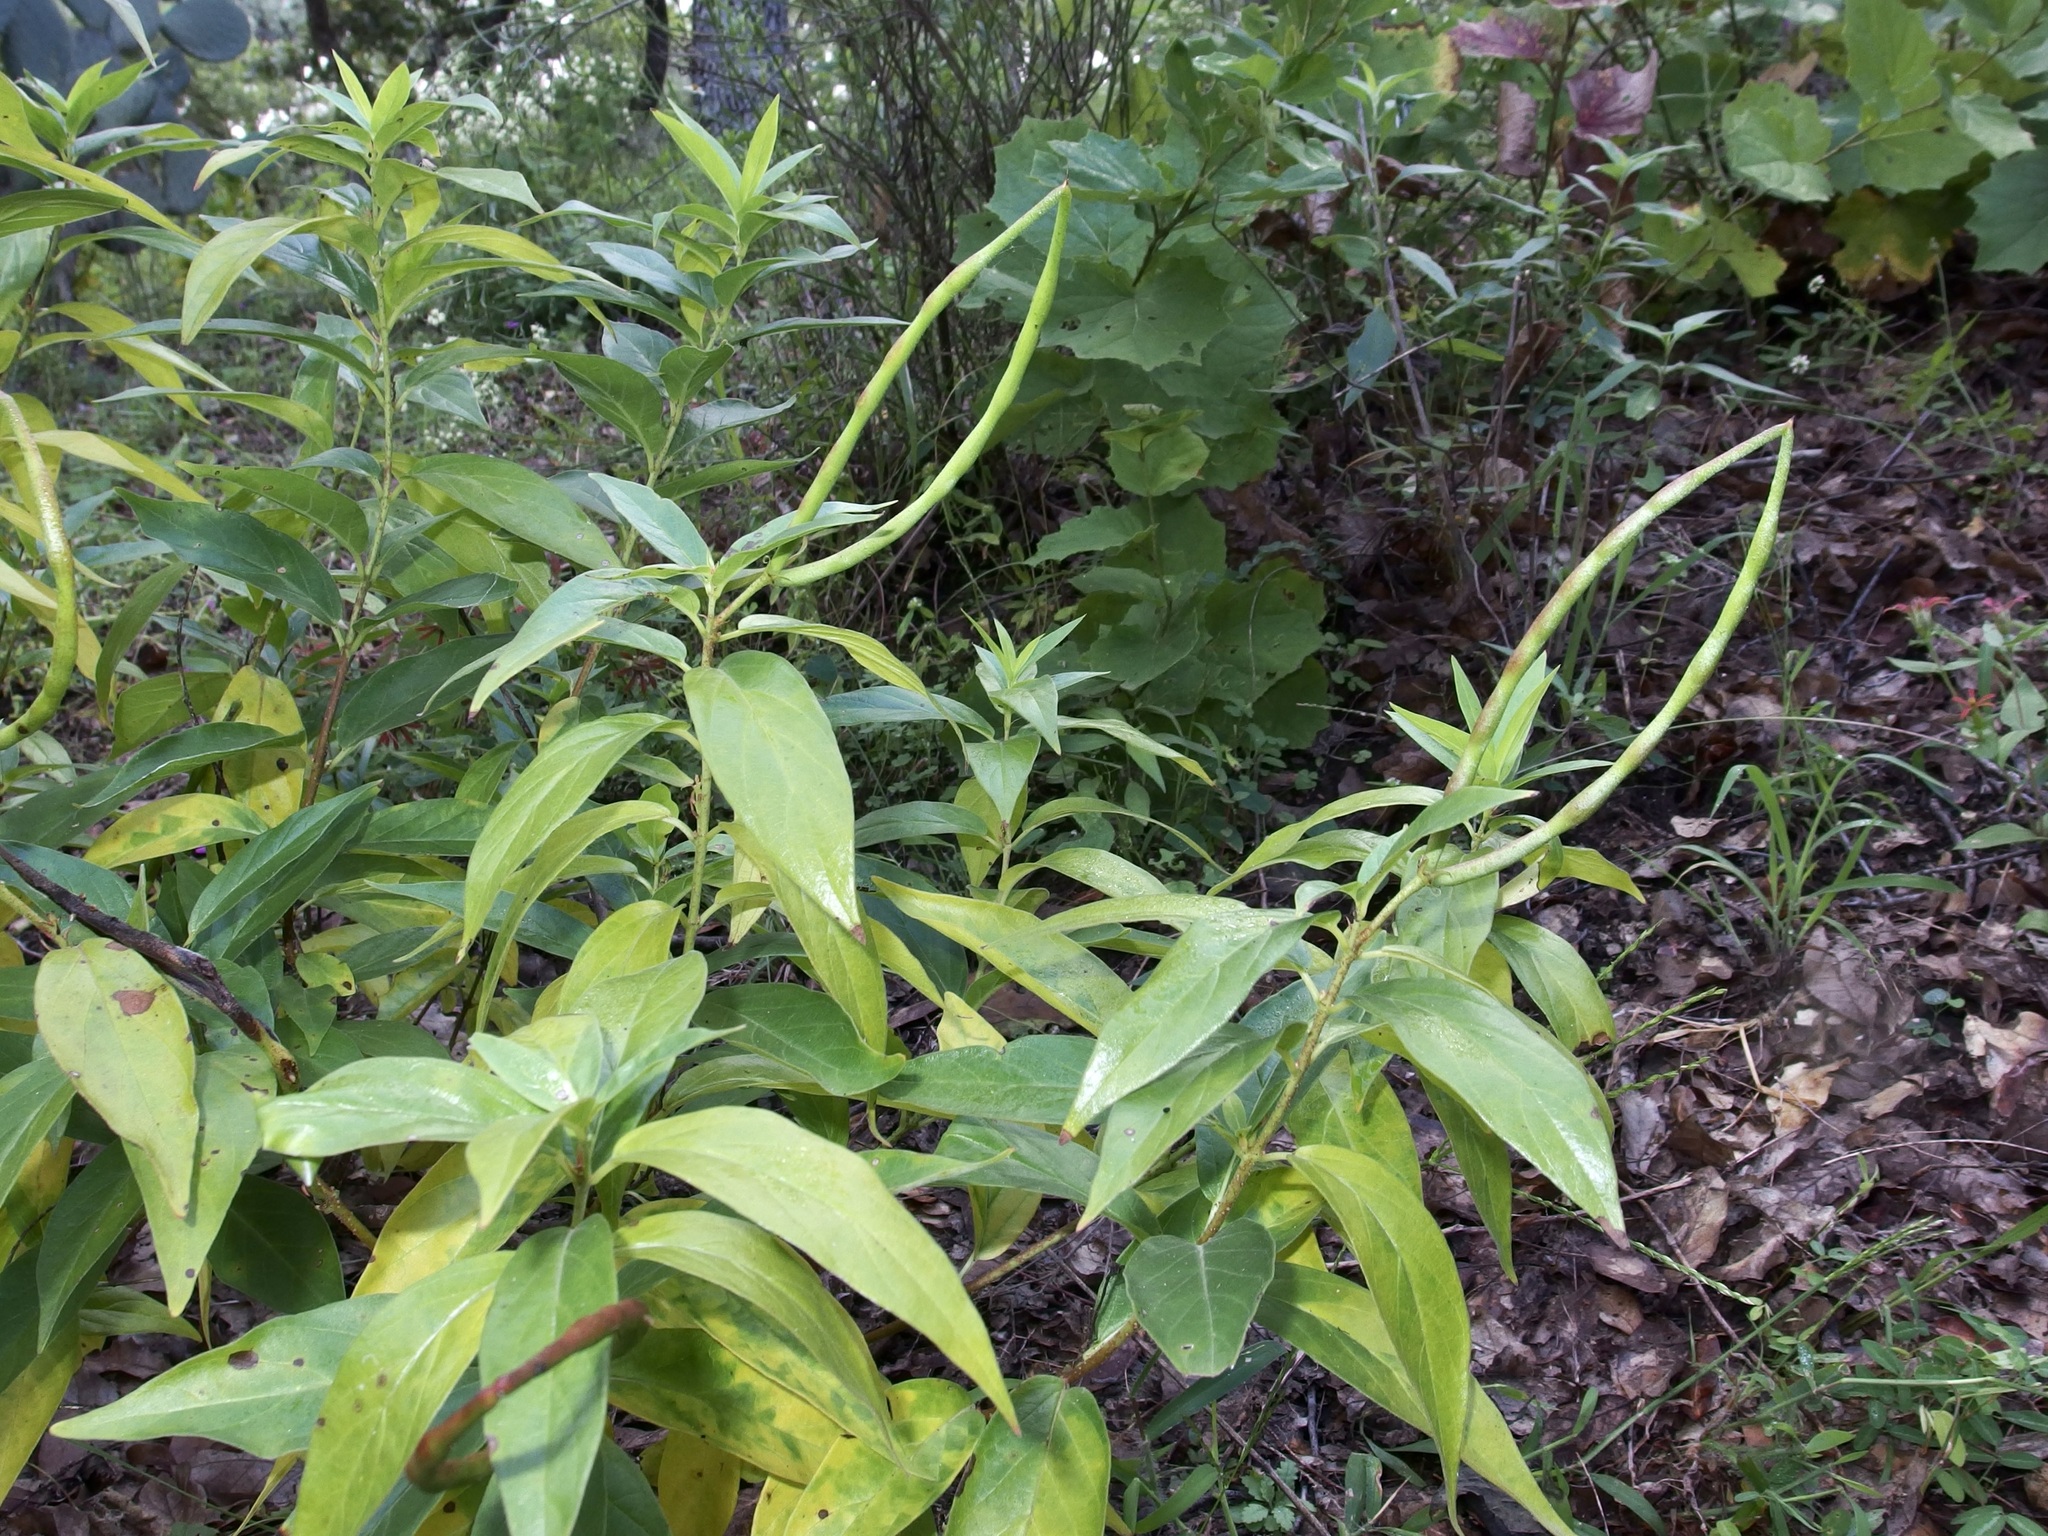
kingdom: Plantae
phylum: Tracheophyta
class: Magnoliopsida
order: Gentianales
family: Apocynaceae
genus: Mandevilla
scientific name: Mandevilla foliosa
